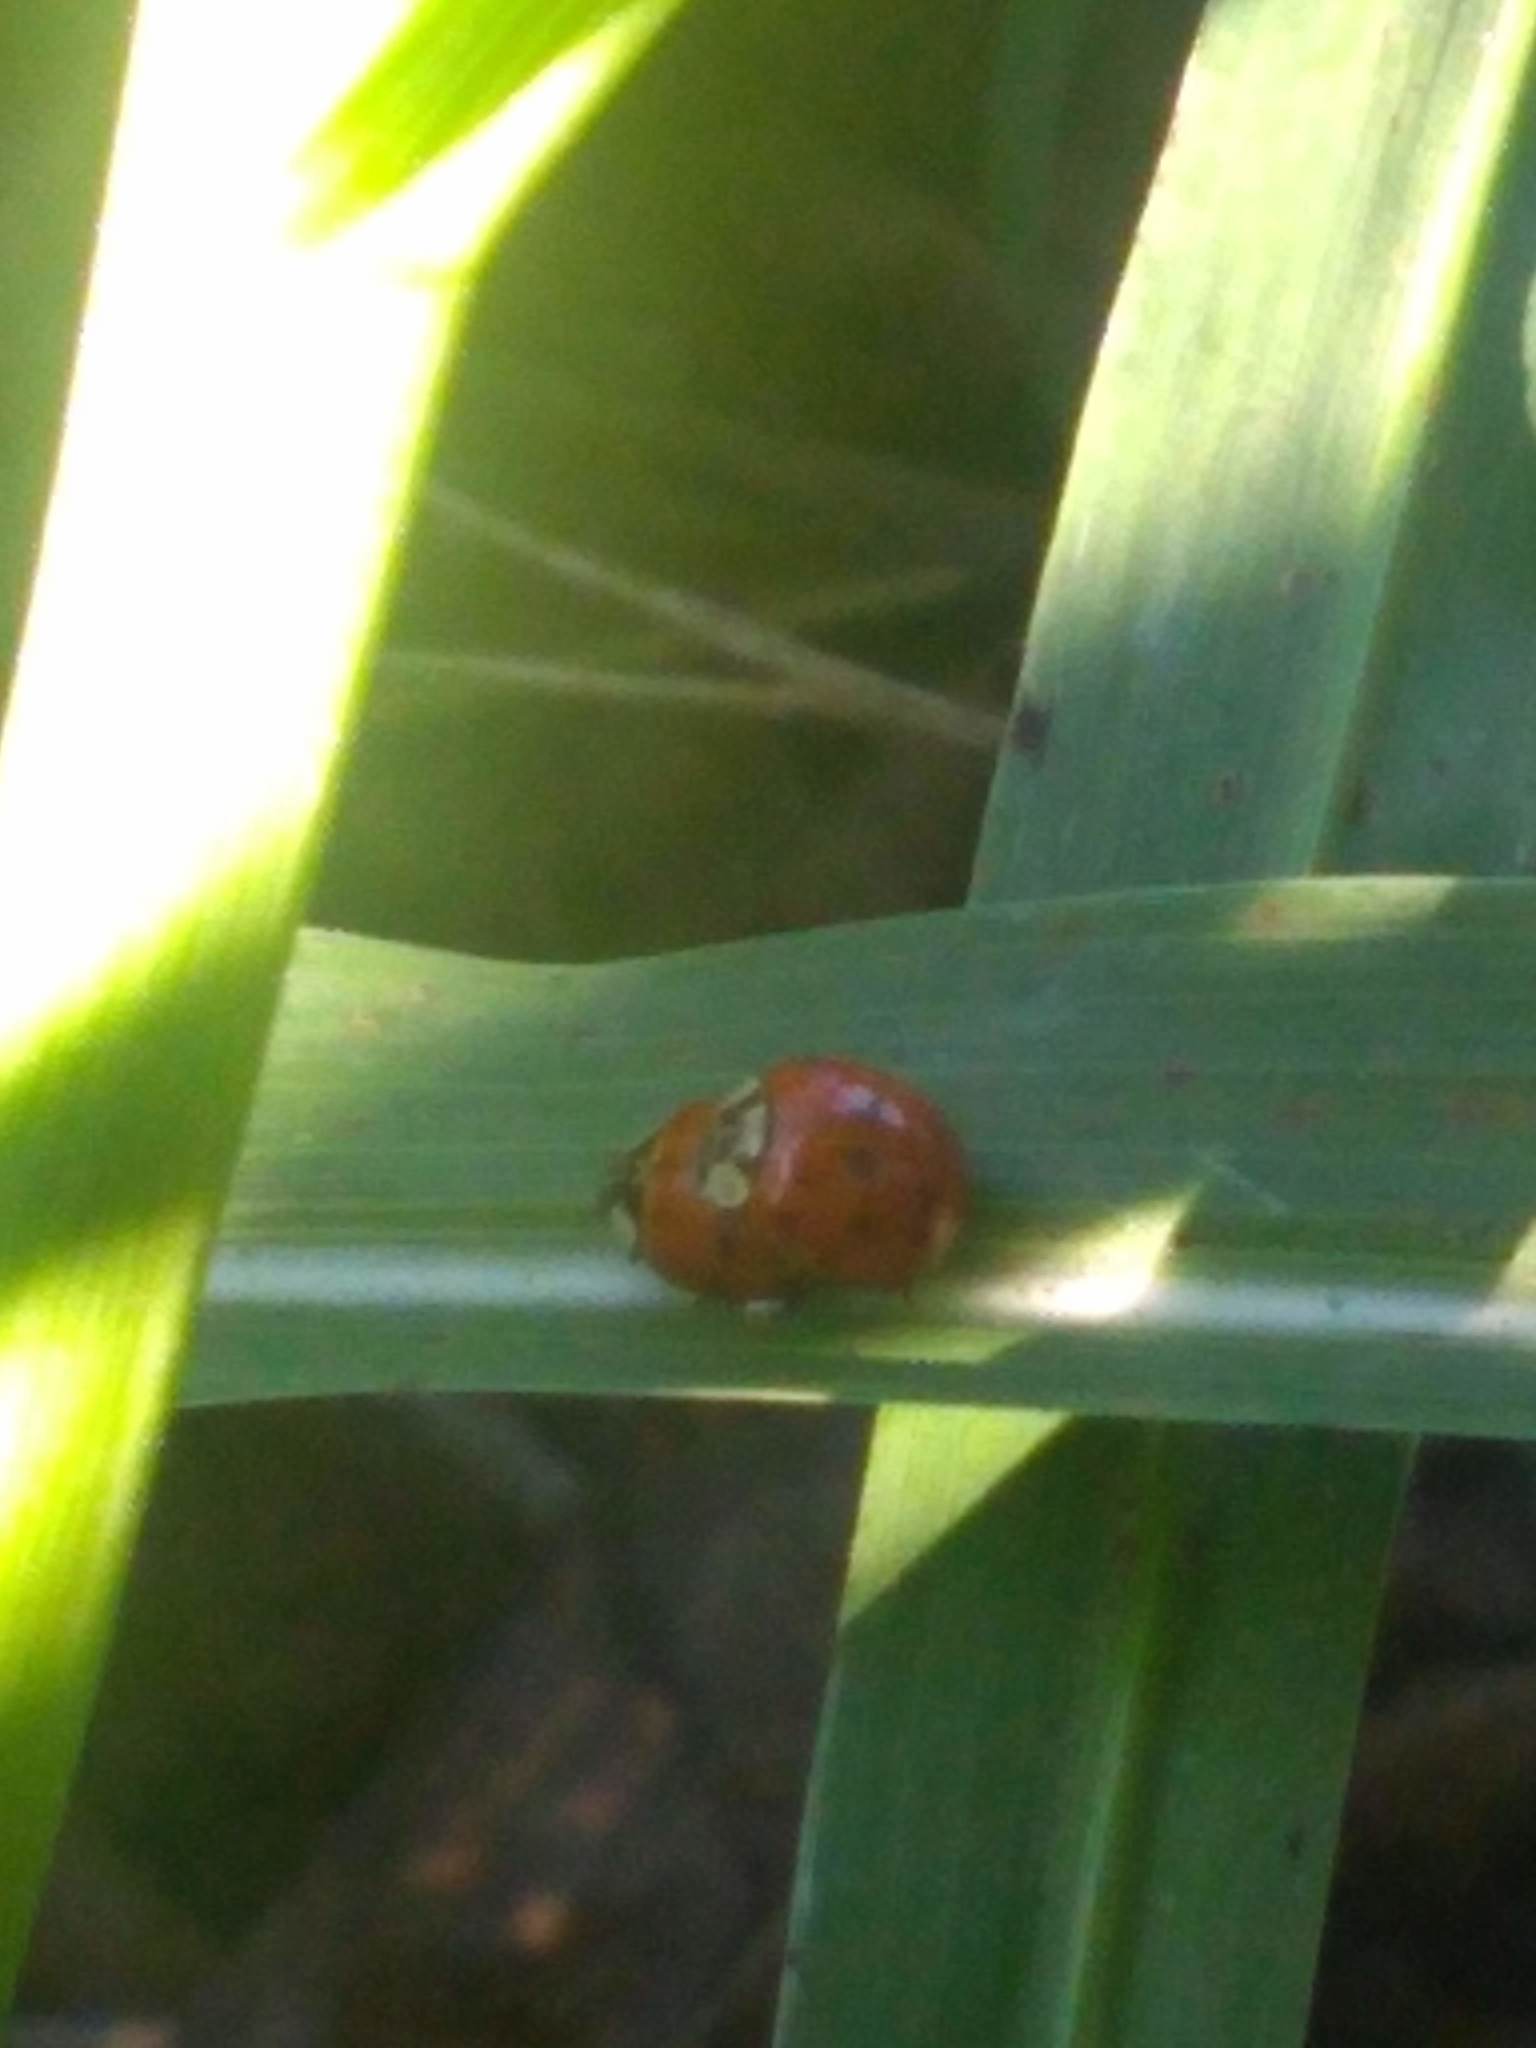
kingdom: Animalia
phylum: Arthropoda
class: Insecta
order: Coleoptera
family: Coccinellidae
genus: Harmonia
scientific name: Harmonia axyridis
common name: Harlequin ladybird
